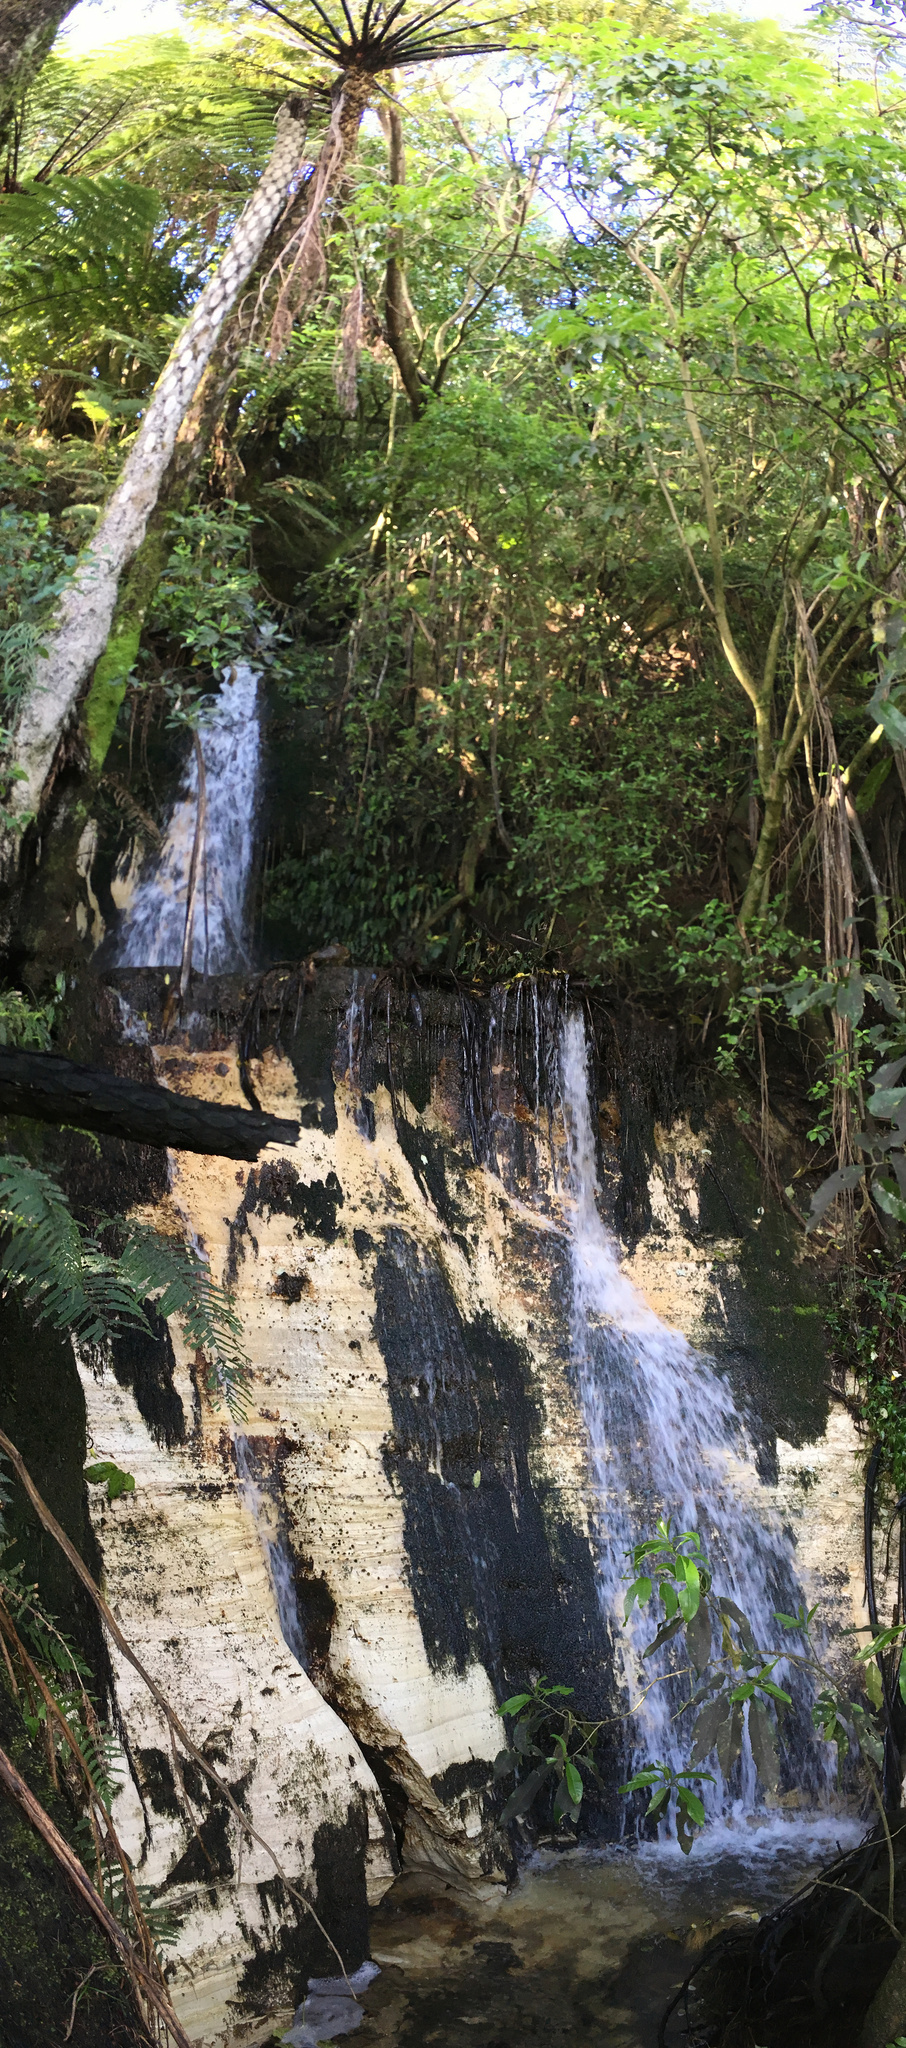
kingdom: Plantae
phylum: Tracheophyta
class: Polypodiopsida
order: Cyatheales
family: Cyatheaceae
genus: Sphaeropteris
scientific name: Sphaeropteris medullaris
